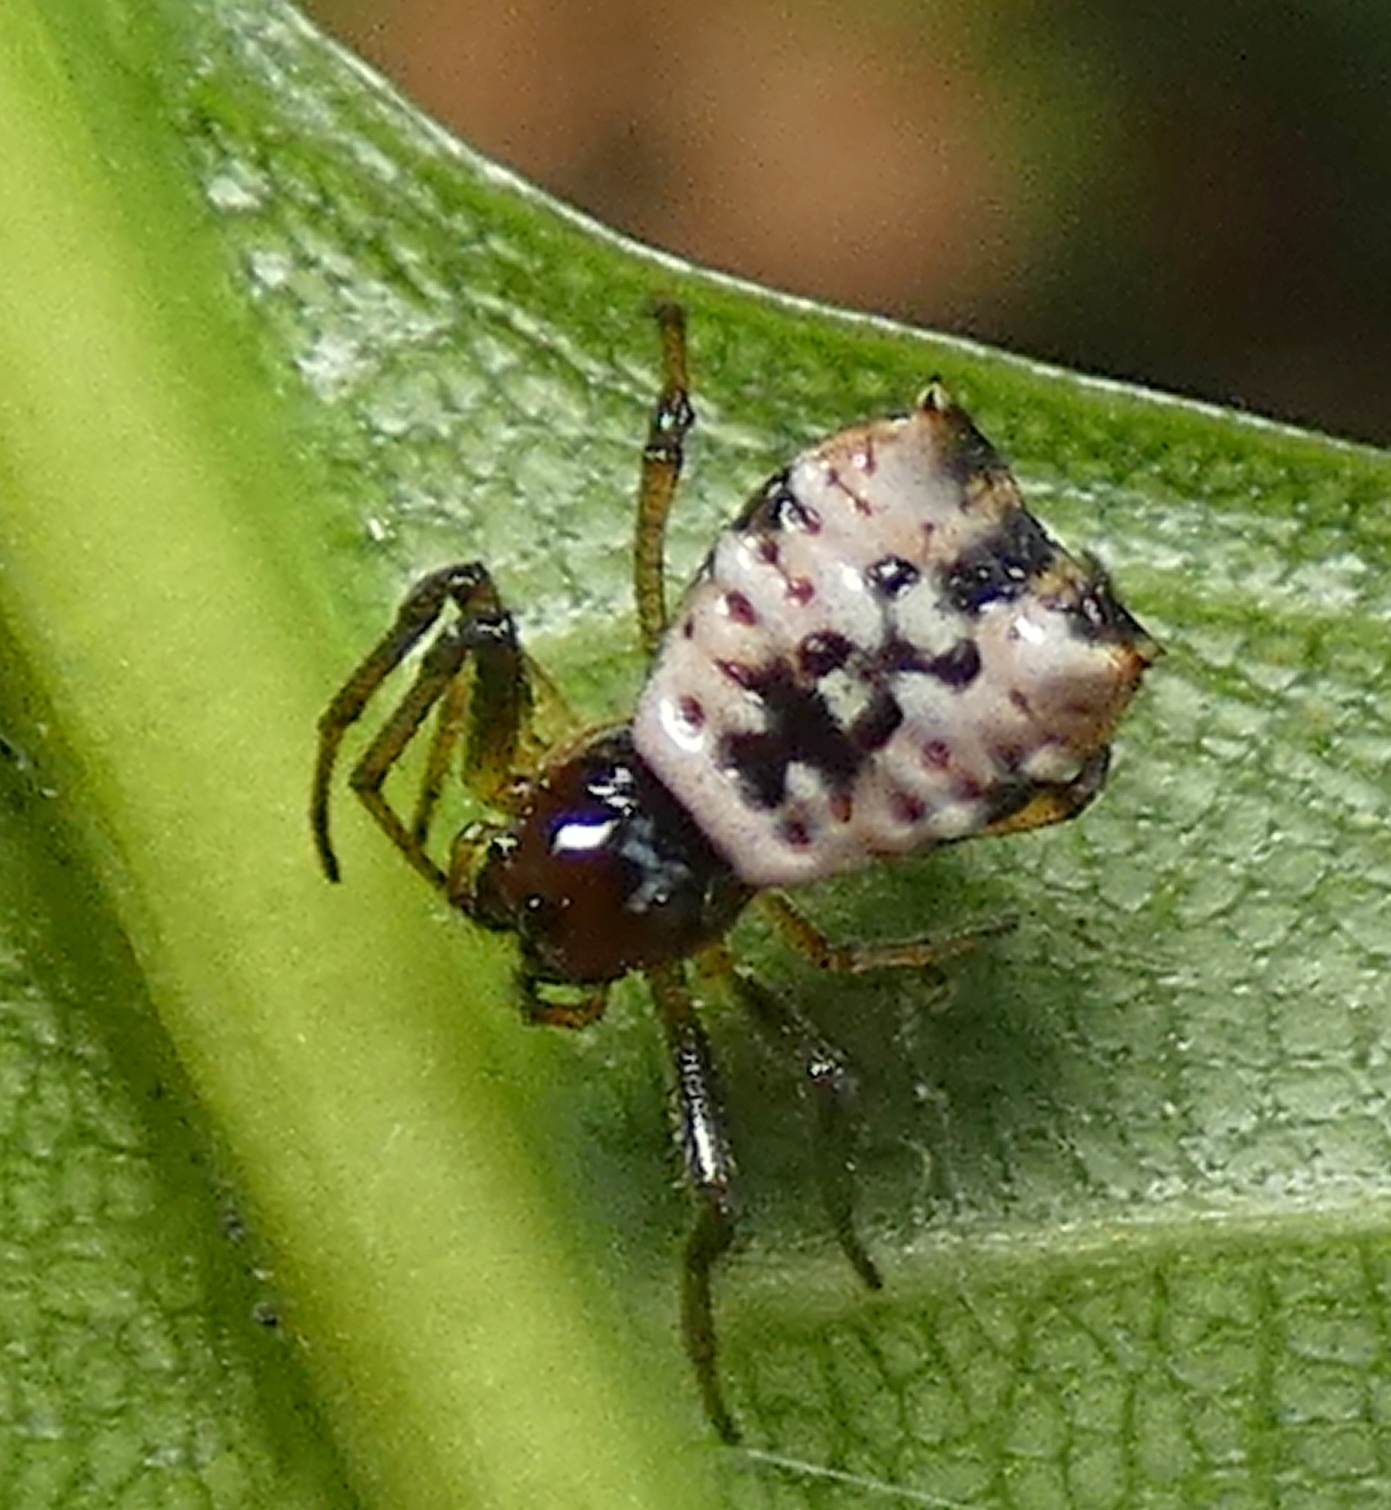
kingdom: Animalia
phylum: Arthropoda
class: Arachnida
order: Araneae
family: Araneidae
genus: Micrathena
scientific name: Micrathena patruelis
